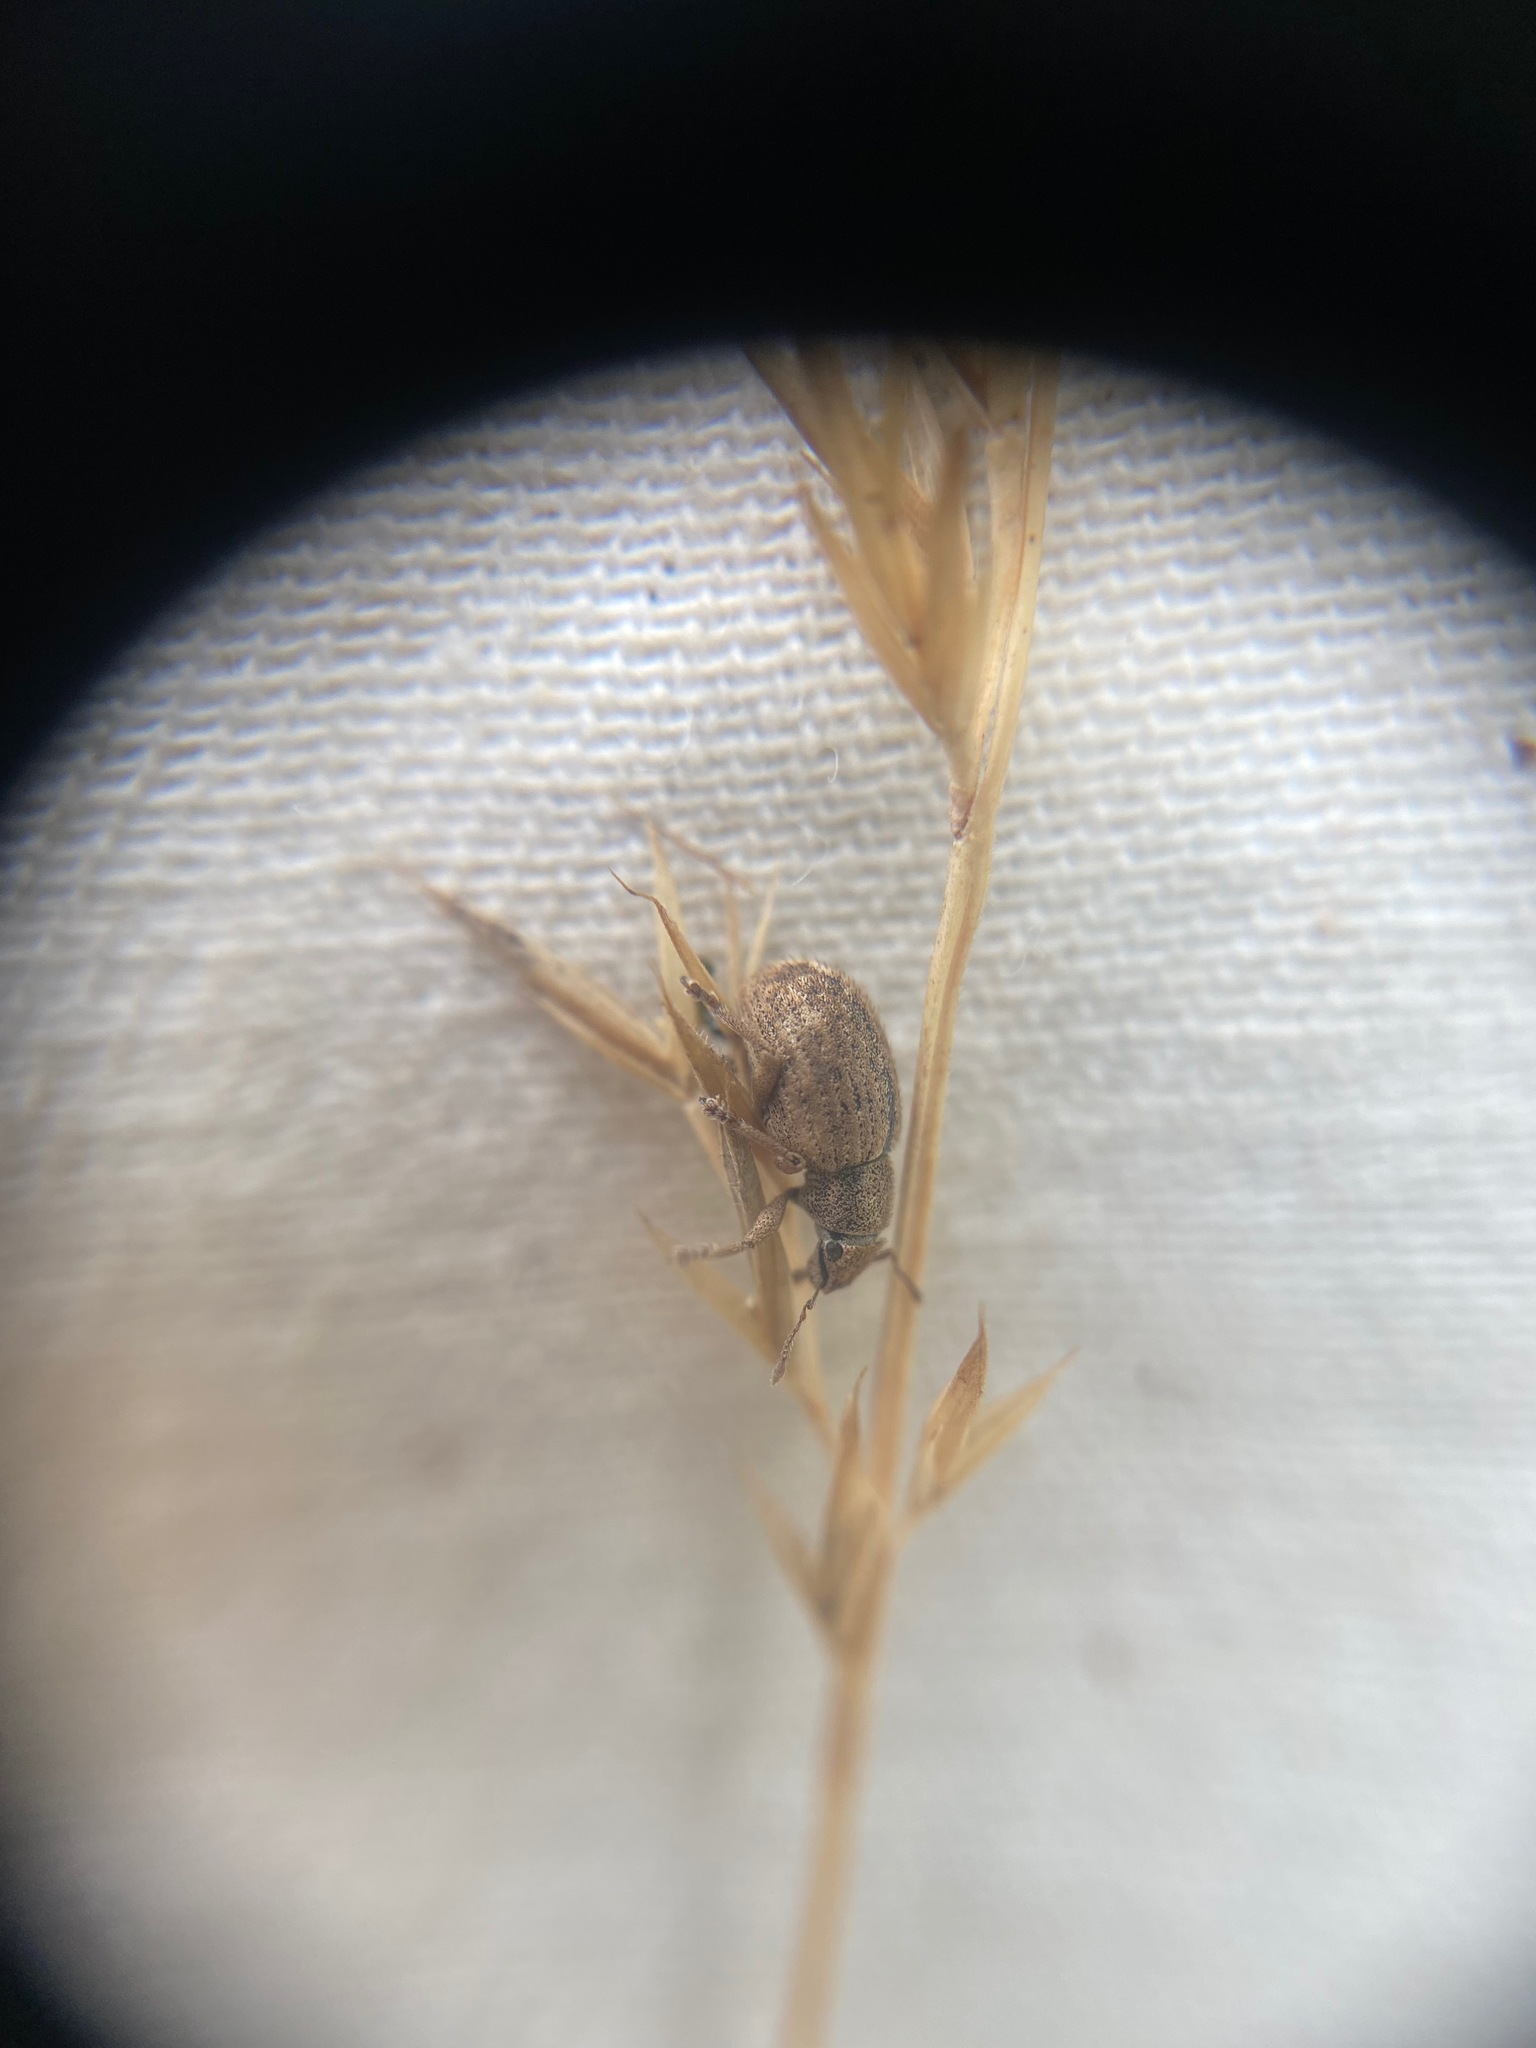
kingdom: Animalia
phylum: Arthropoda
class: Insecta
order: Coleoptera
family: Curculionidae
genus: Strophosoma
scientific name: Strophosoma melanogrammum
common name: Weevil
